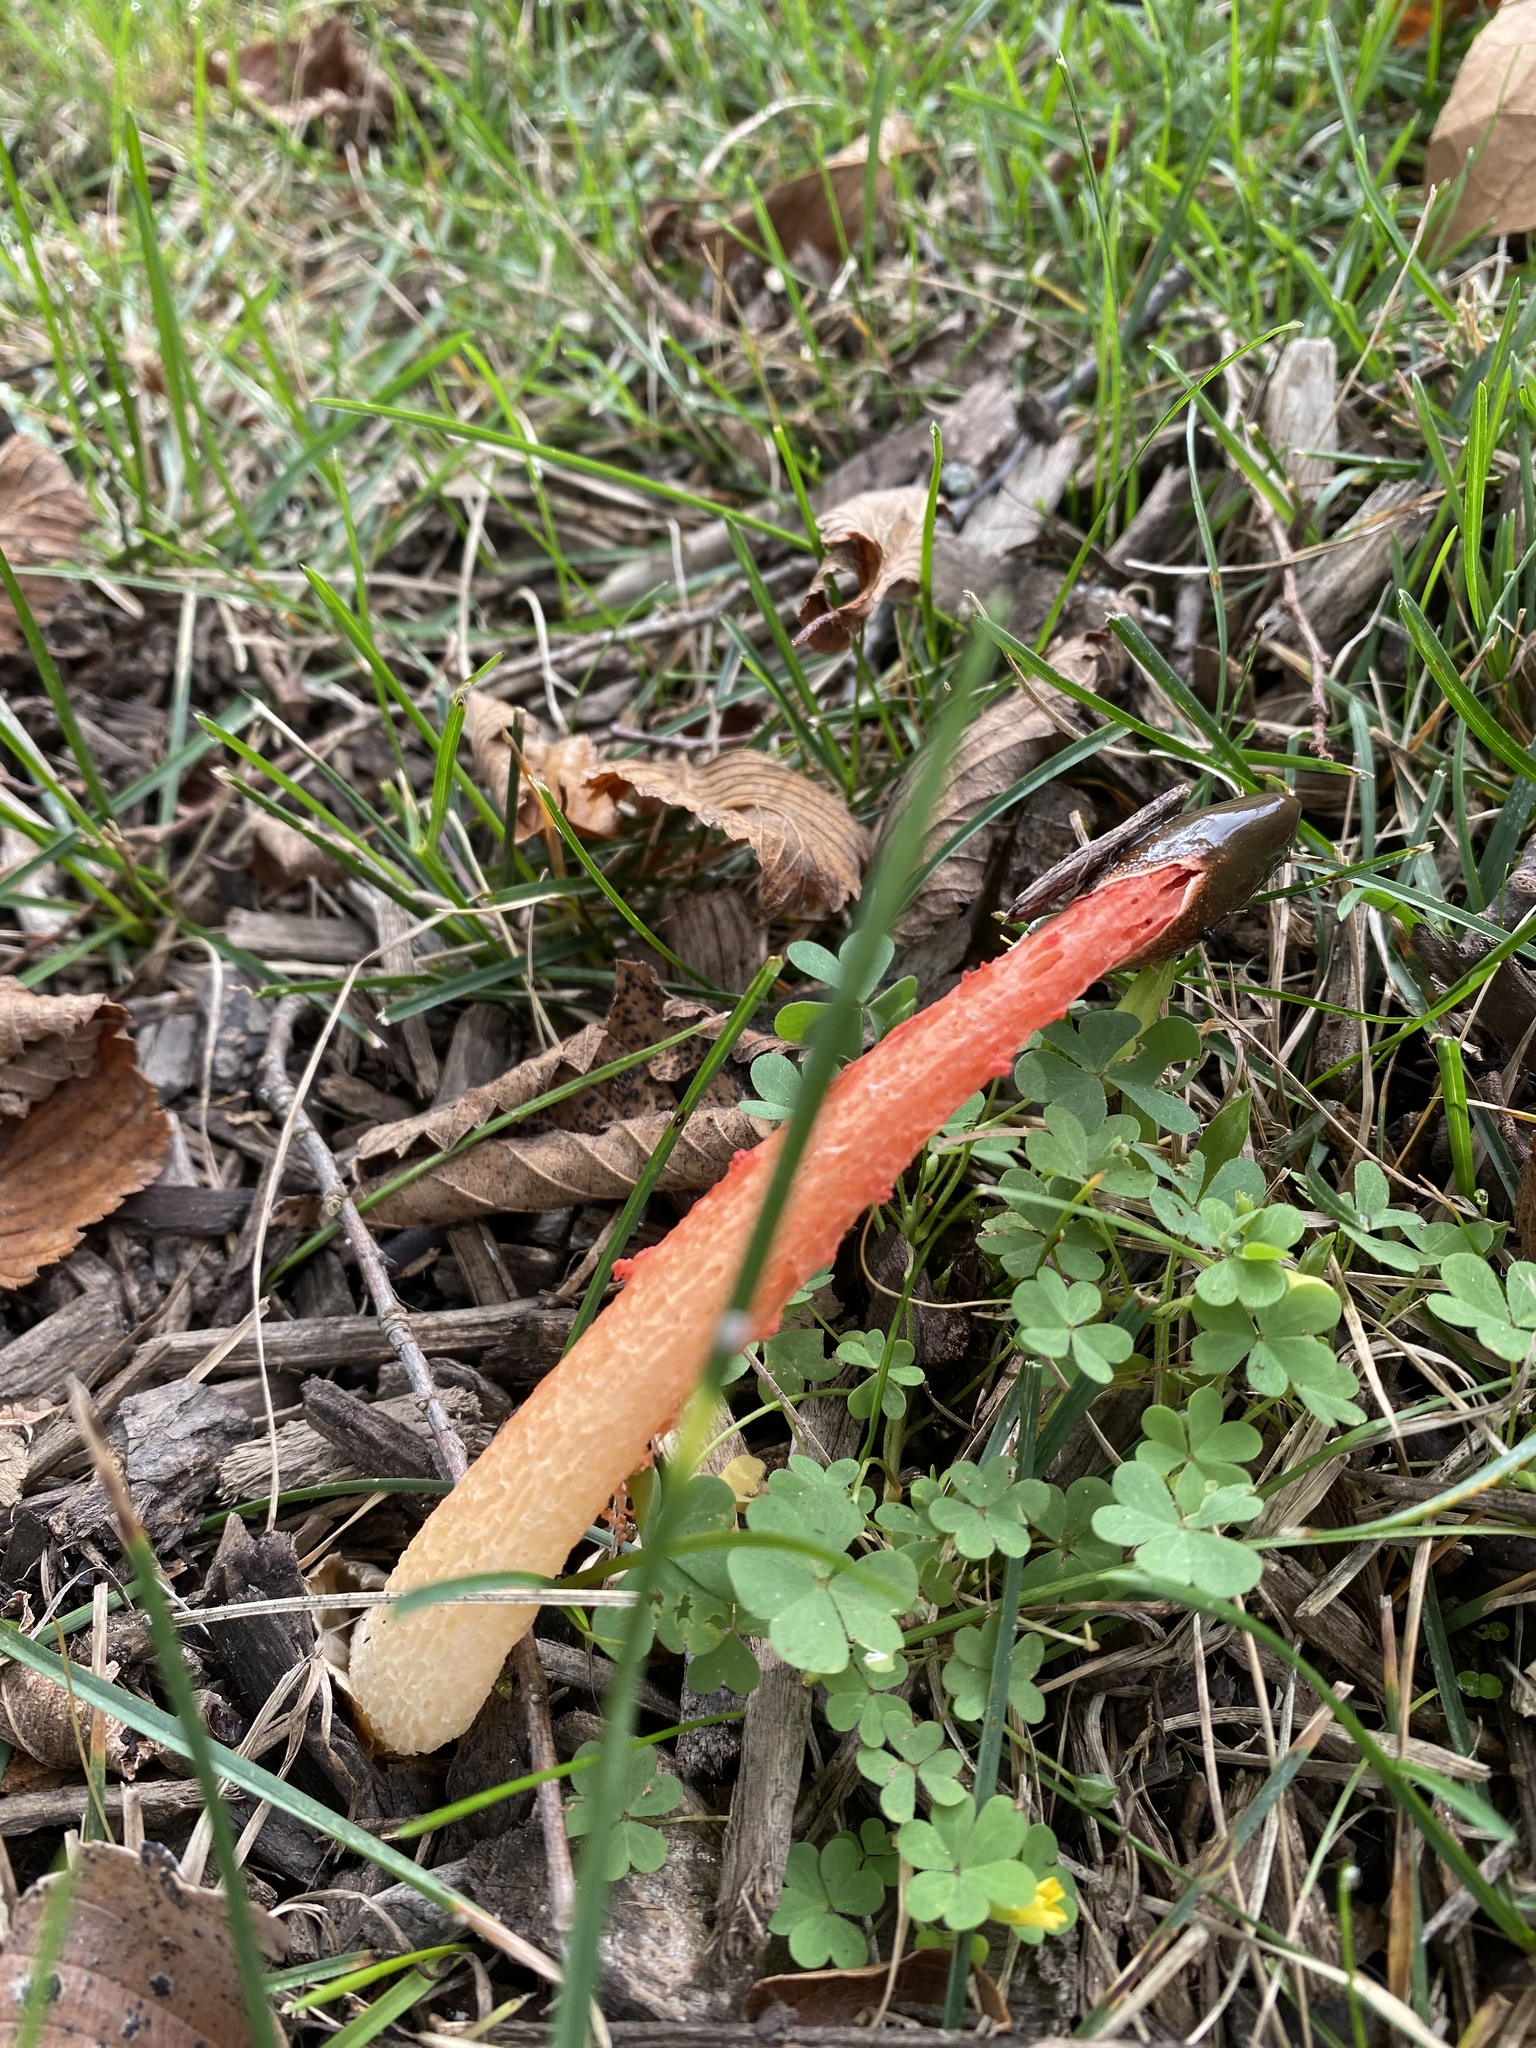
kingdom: Fungi
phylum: Basidiomycota
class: Agaricomycetes
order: Phallales
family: Phallaceae
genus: Phallus
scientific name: Phallus rugulosus
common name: Wrinkly stinkhorn
